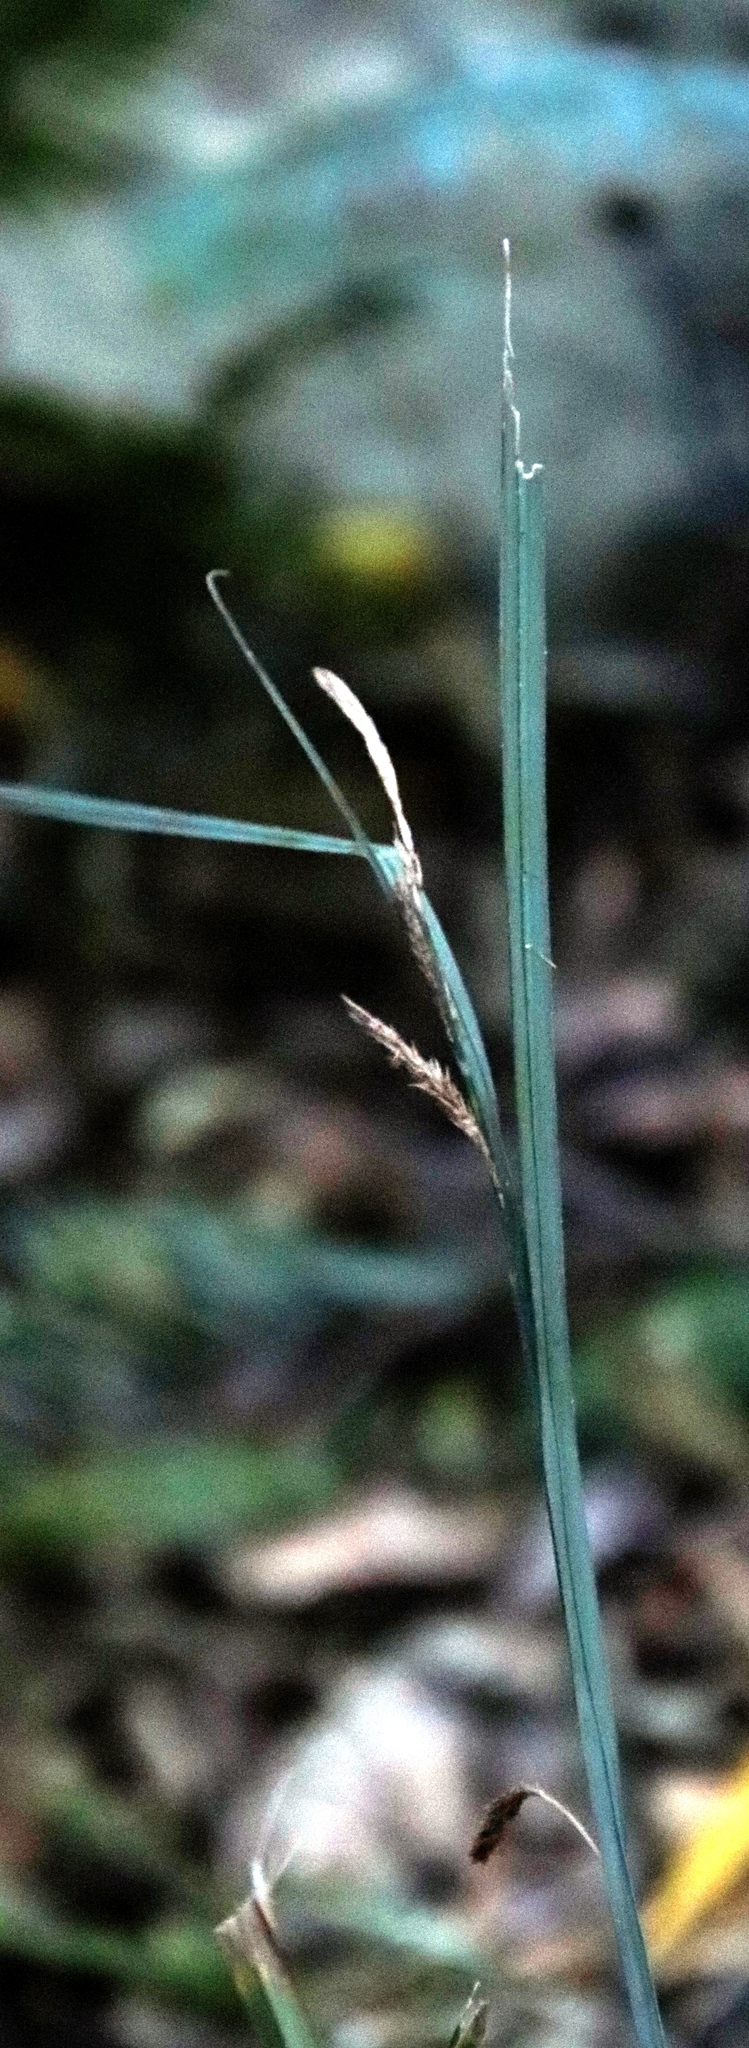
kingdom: Plantae
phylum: Tracheophyta
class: Liliopsida
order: Poales
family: Cyperaceae
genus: Carex
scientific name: Carex uhligii
